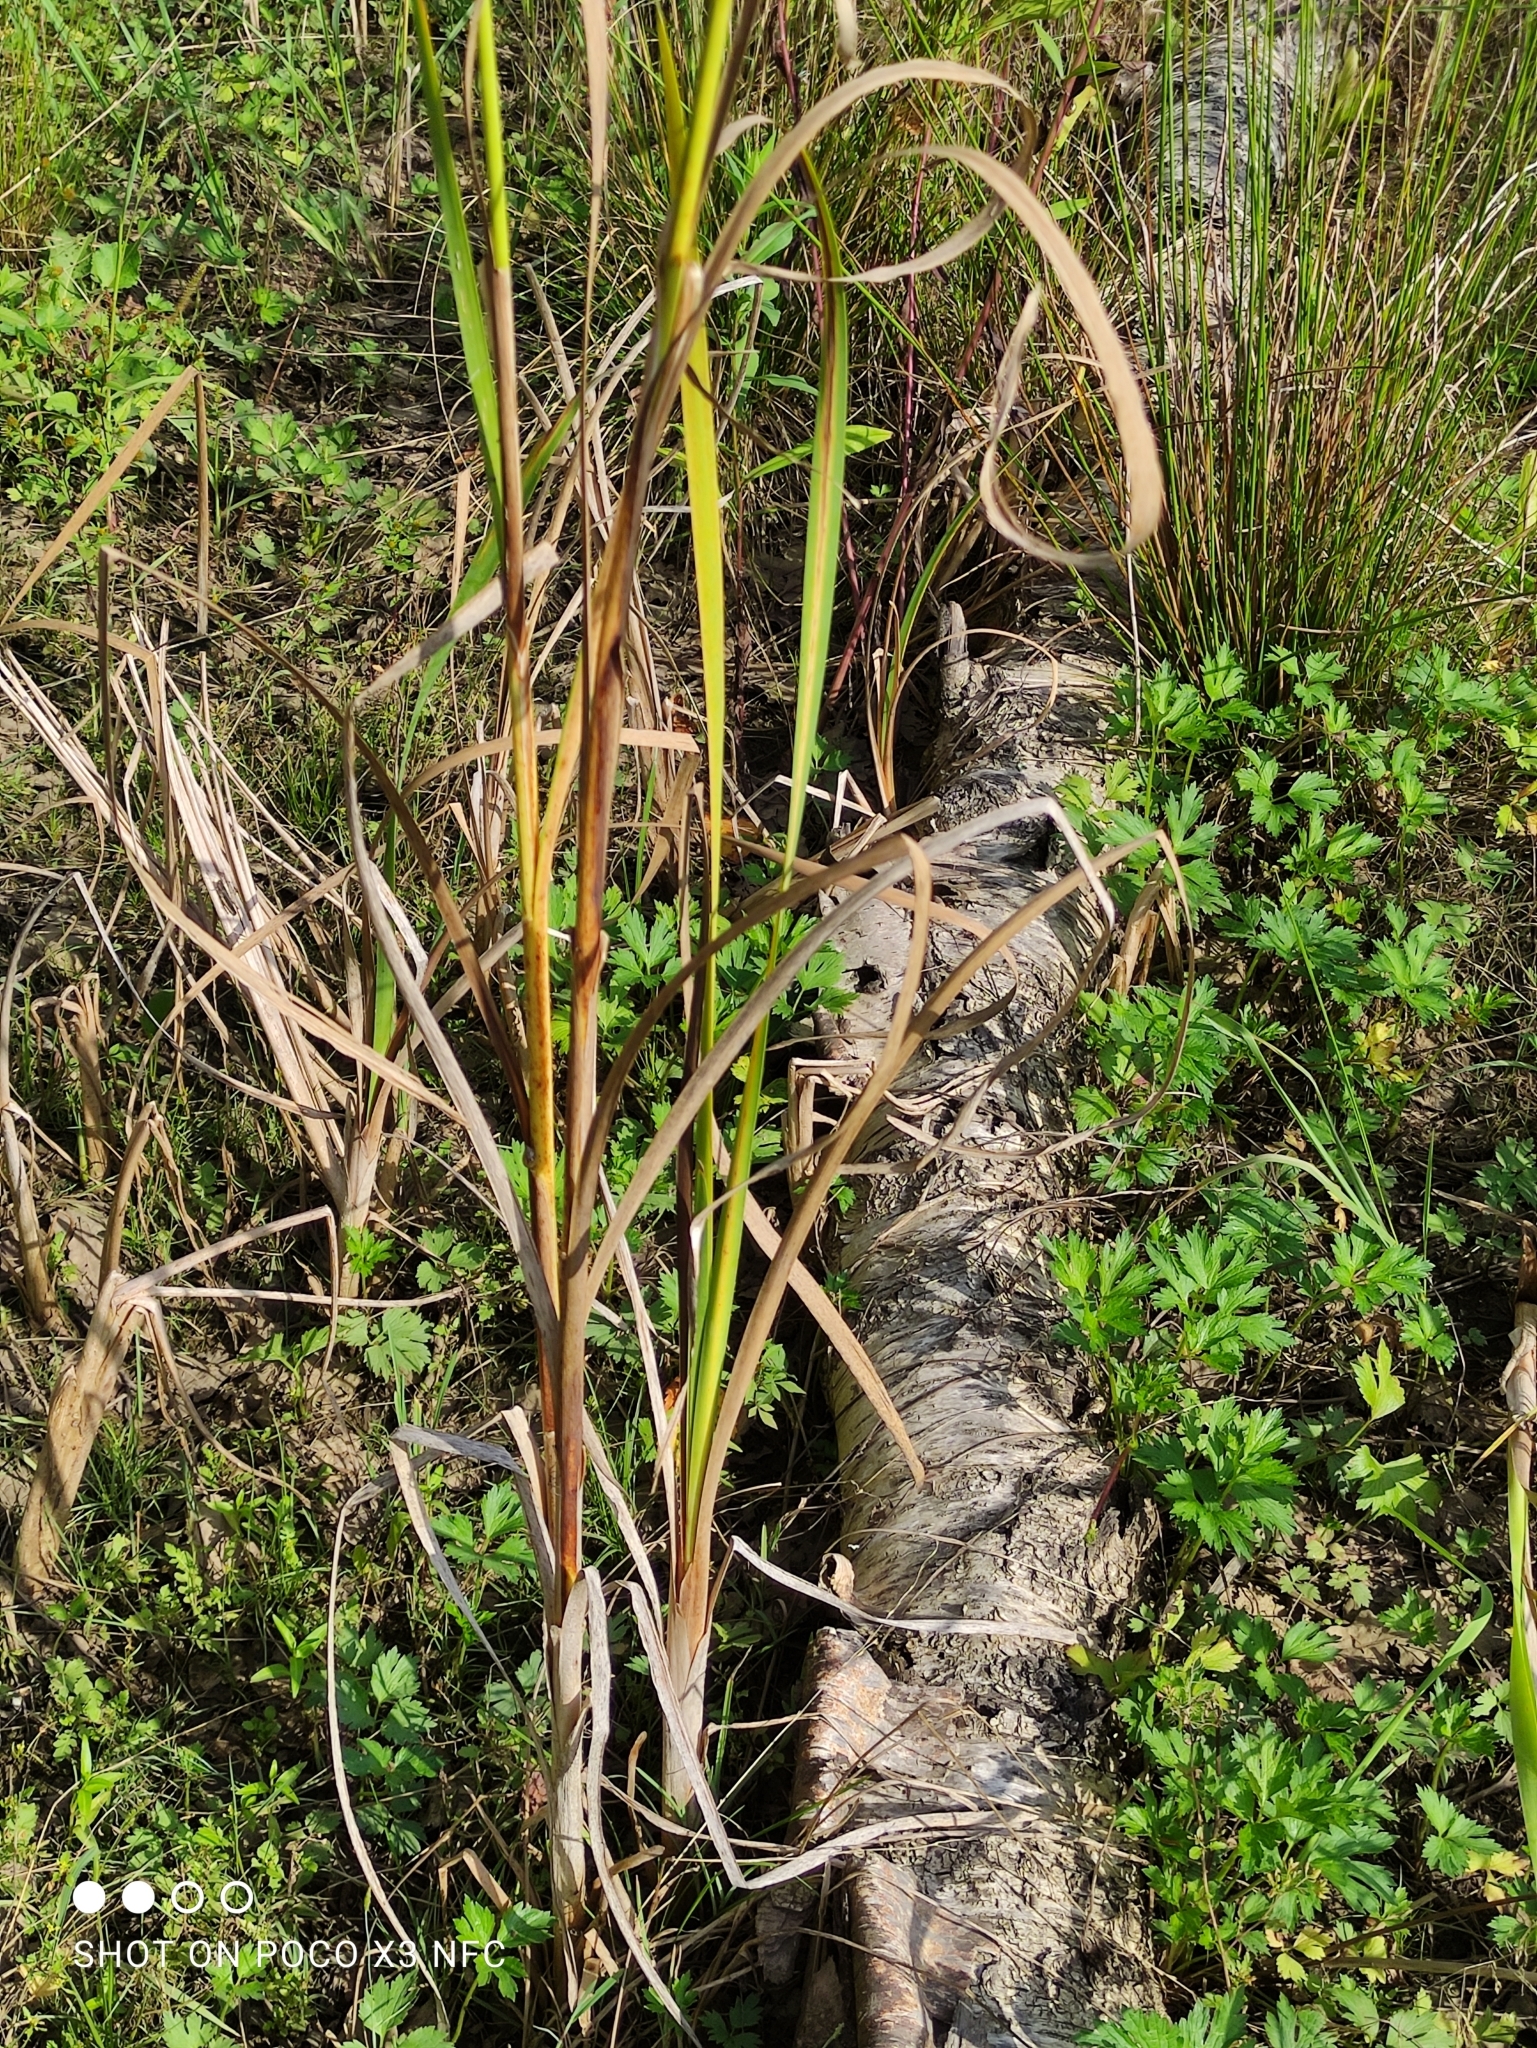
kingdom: Plantae
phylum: Tracheophyta
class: Liliopsida
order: Poales
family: Typhaceae
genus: Typha
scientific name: Typha angustifolia
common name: Lesser bulrush
